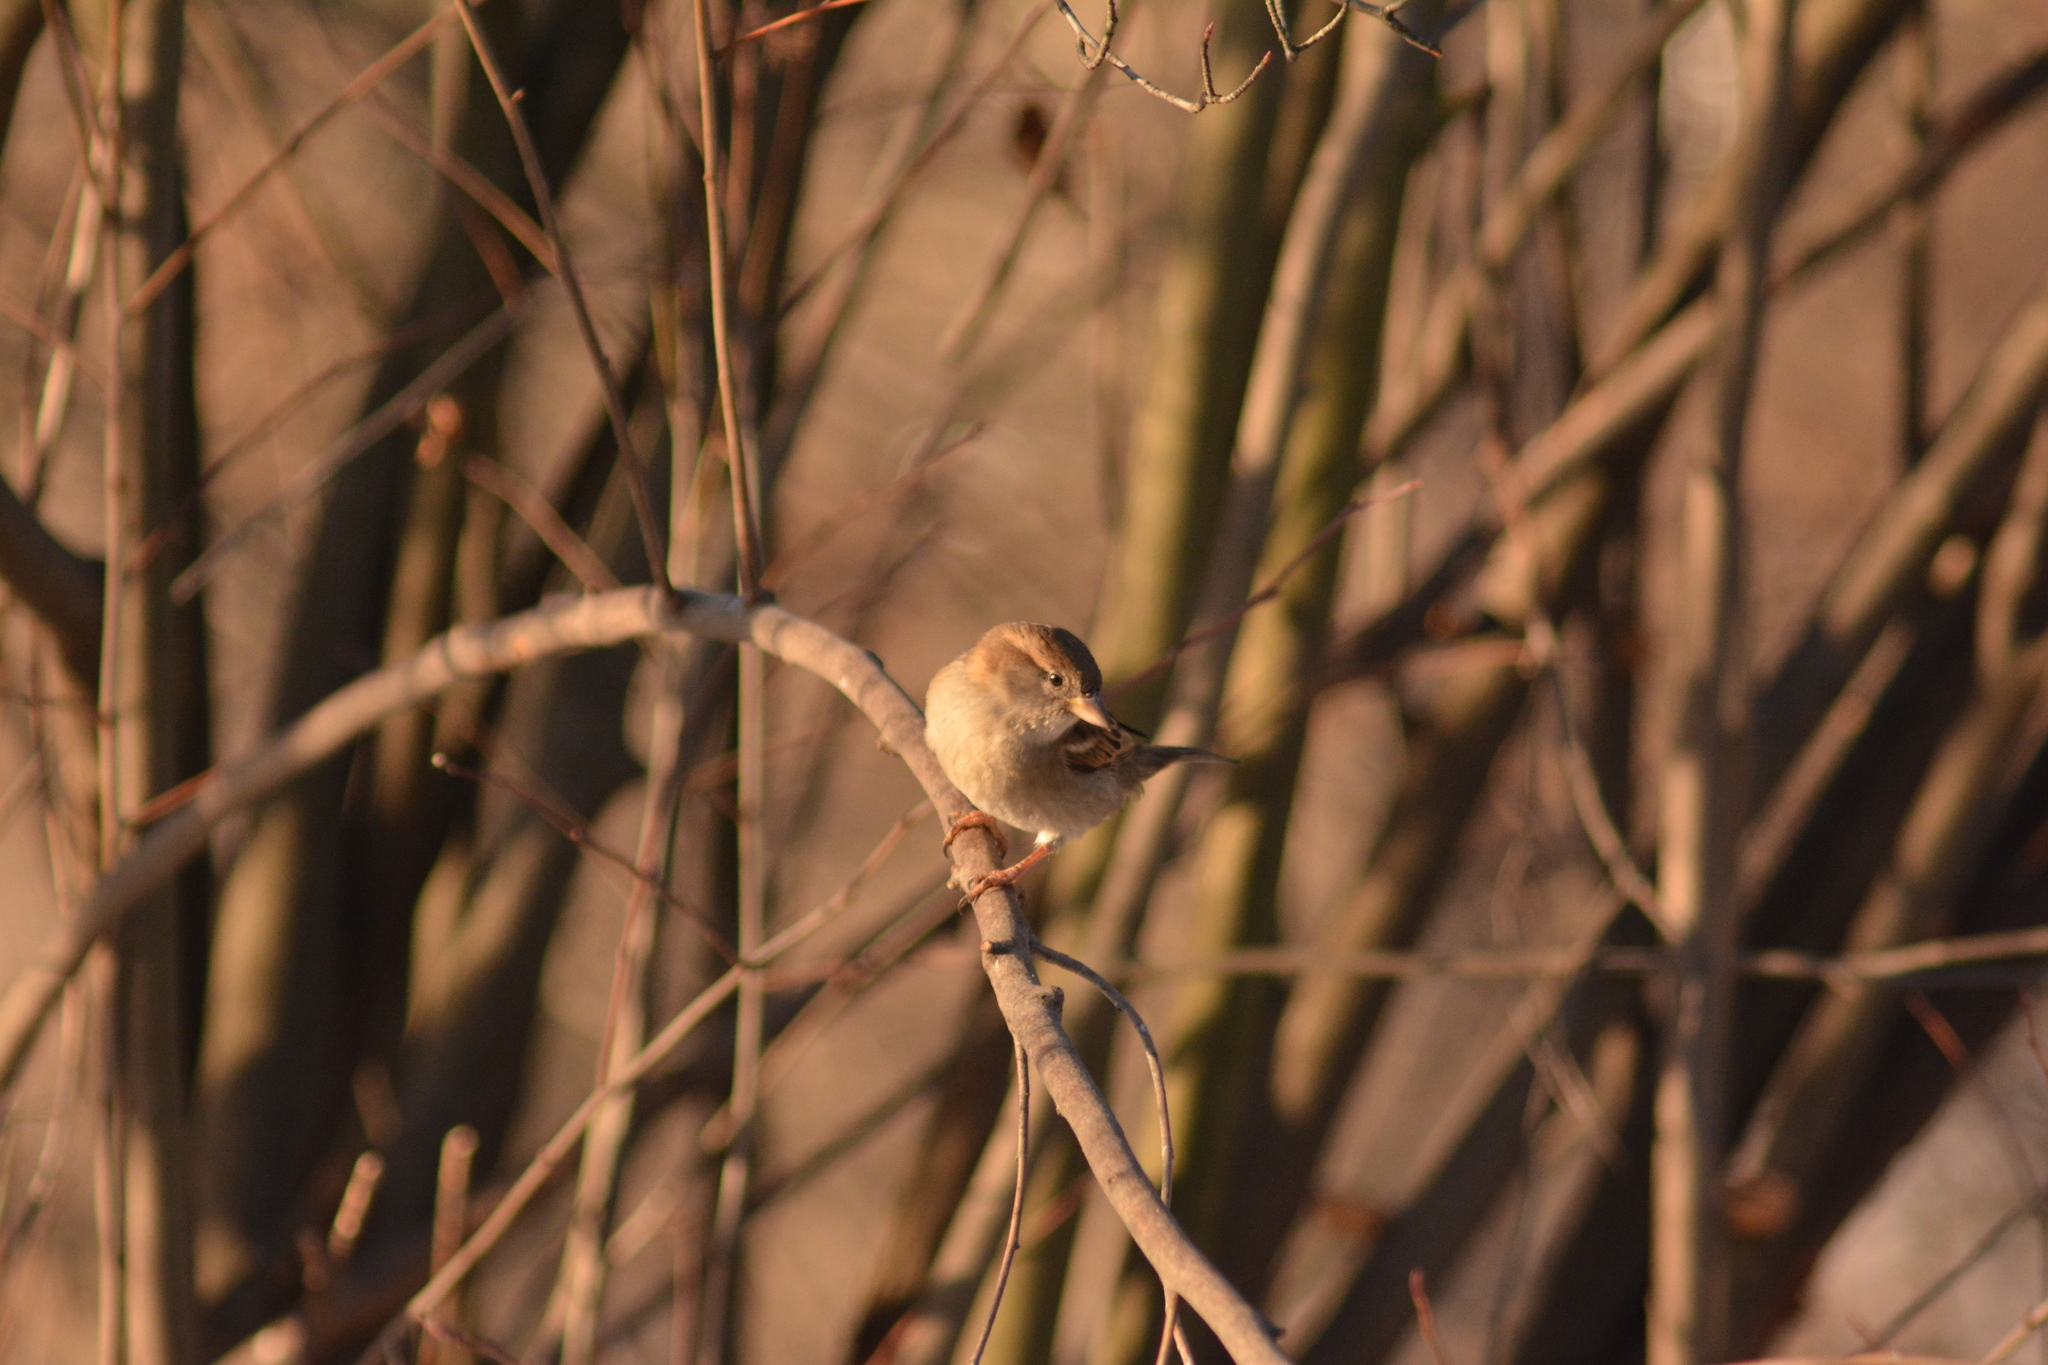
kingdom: Animalia
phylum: Chordata
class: Aves
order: Passeriformes
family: Passeridae
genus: Passer
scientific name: Passer domesticus
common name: House sparrow
